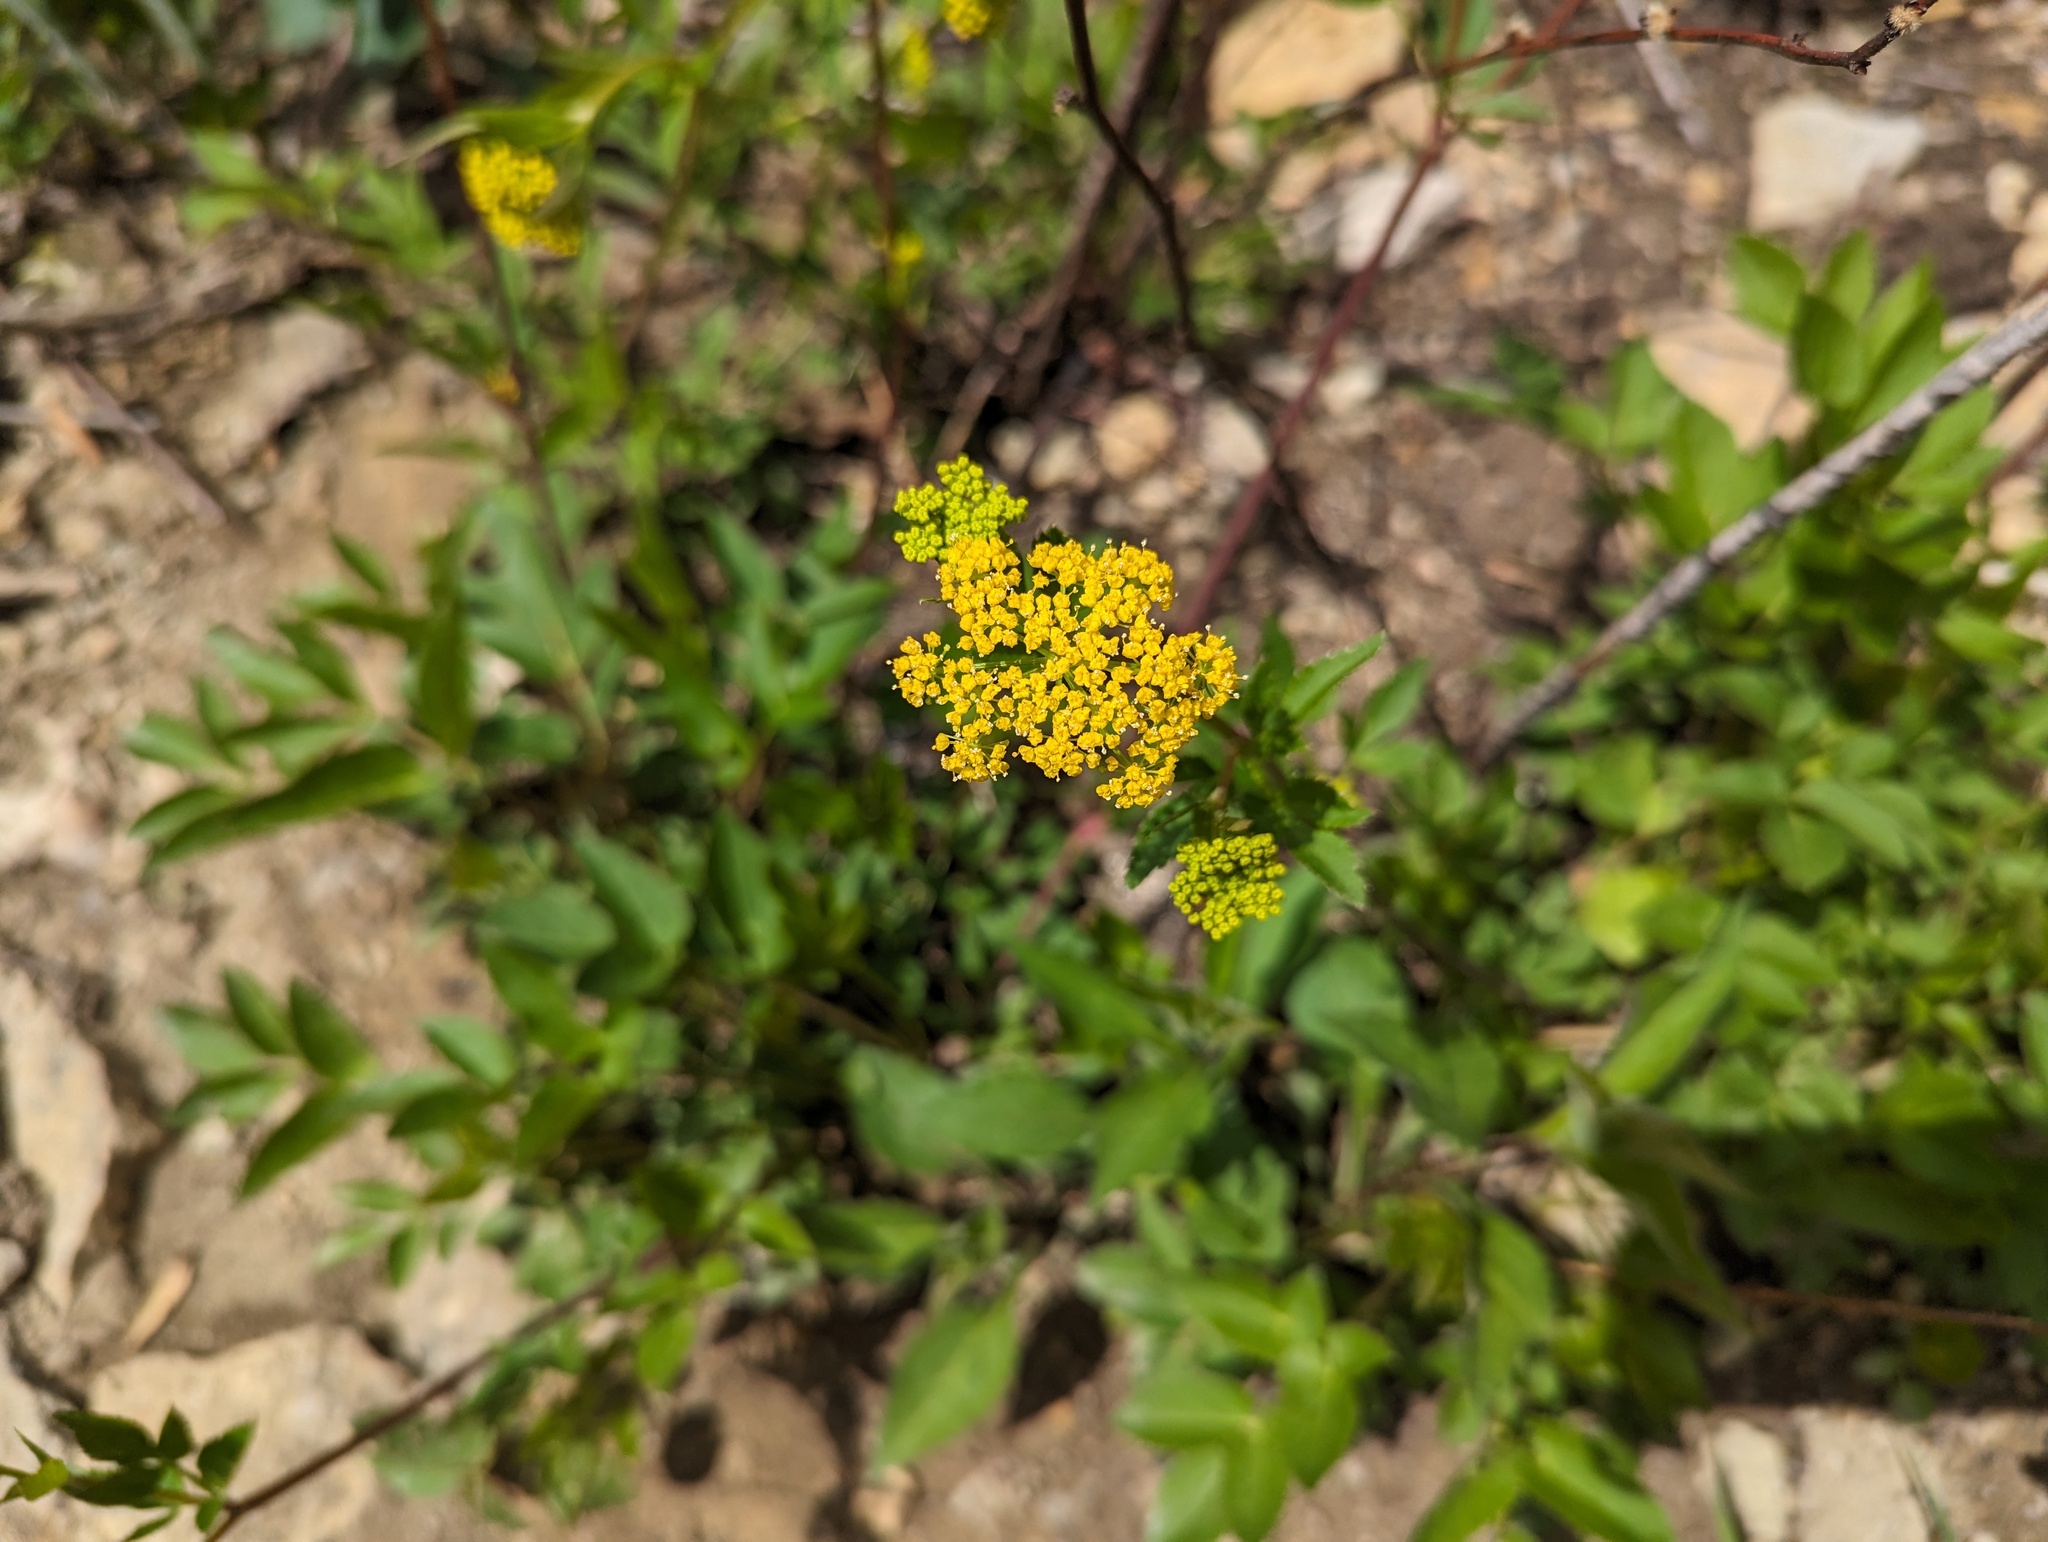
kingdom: Plantae
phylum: Tracheophyta
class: Magnoliopsida
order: Apiales
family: Apiaceae
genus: Zizia
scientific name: Zizia aurea
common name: Golden alexanders
